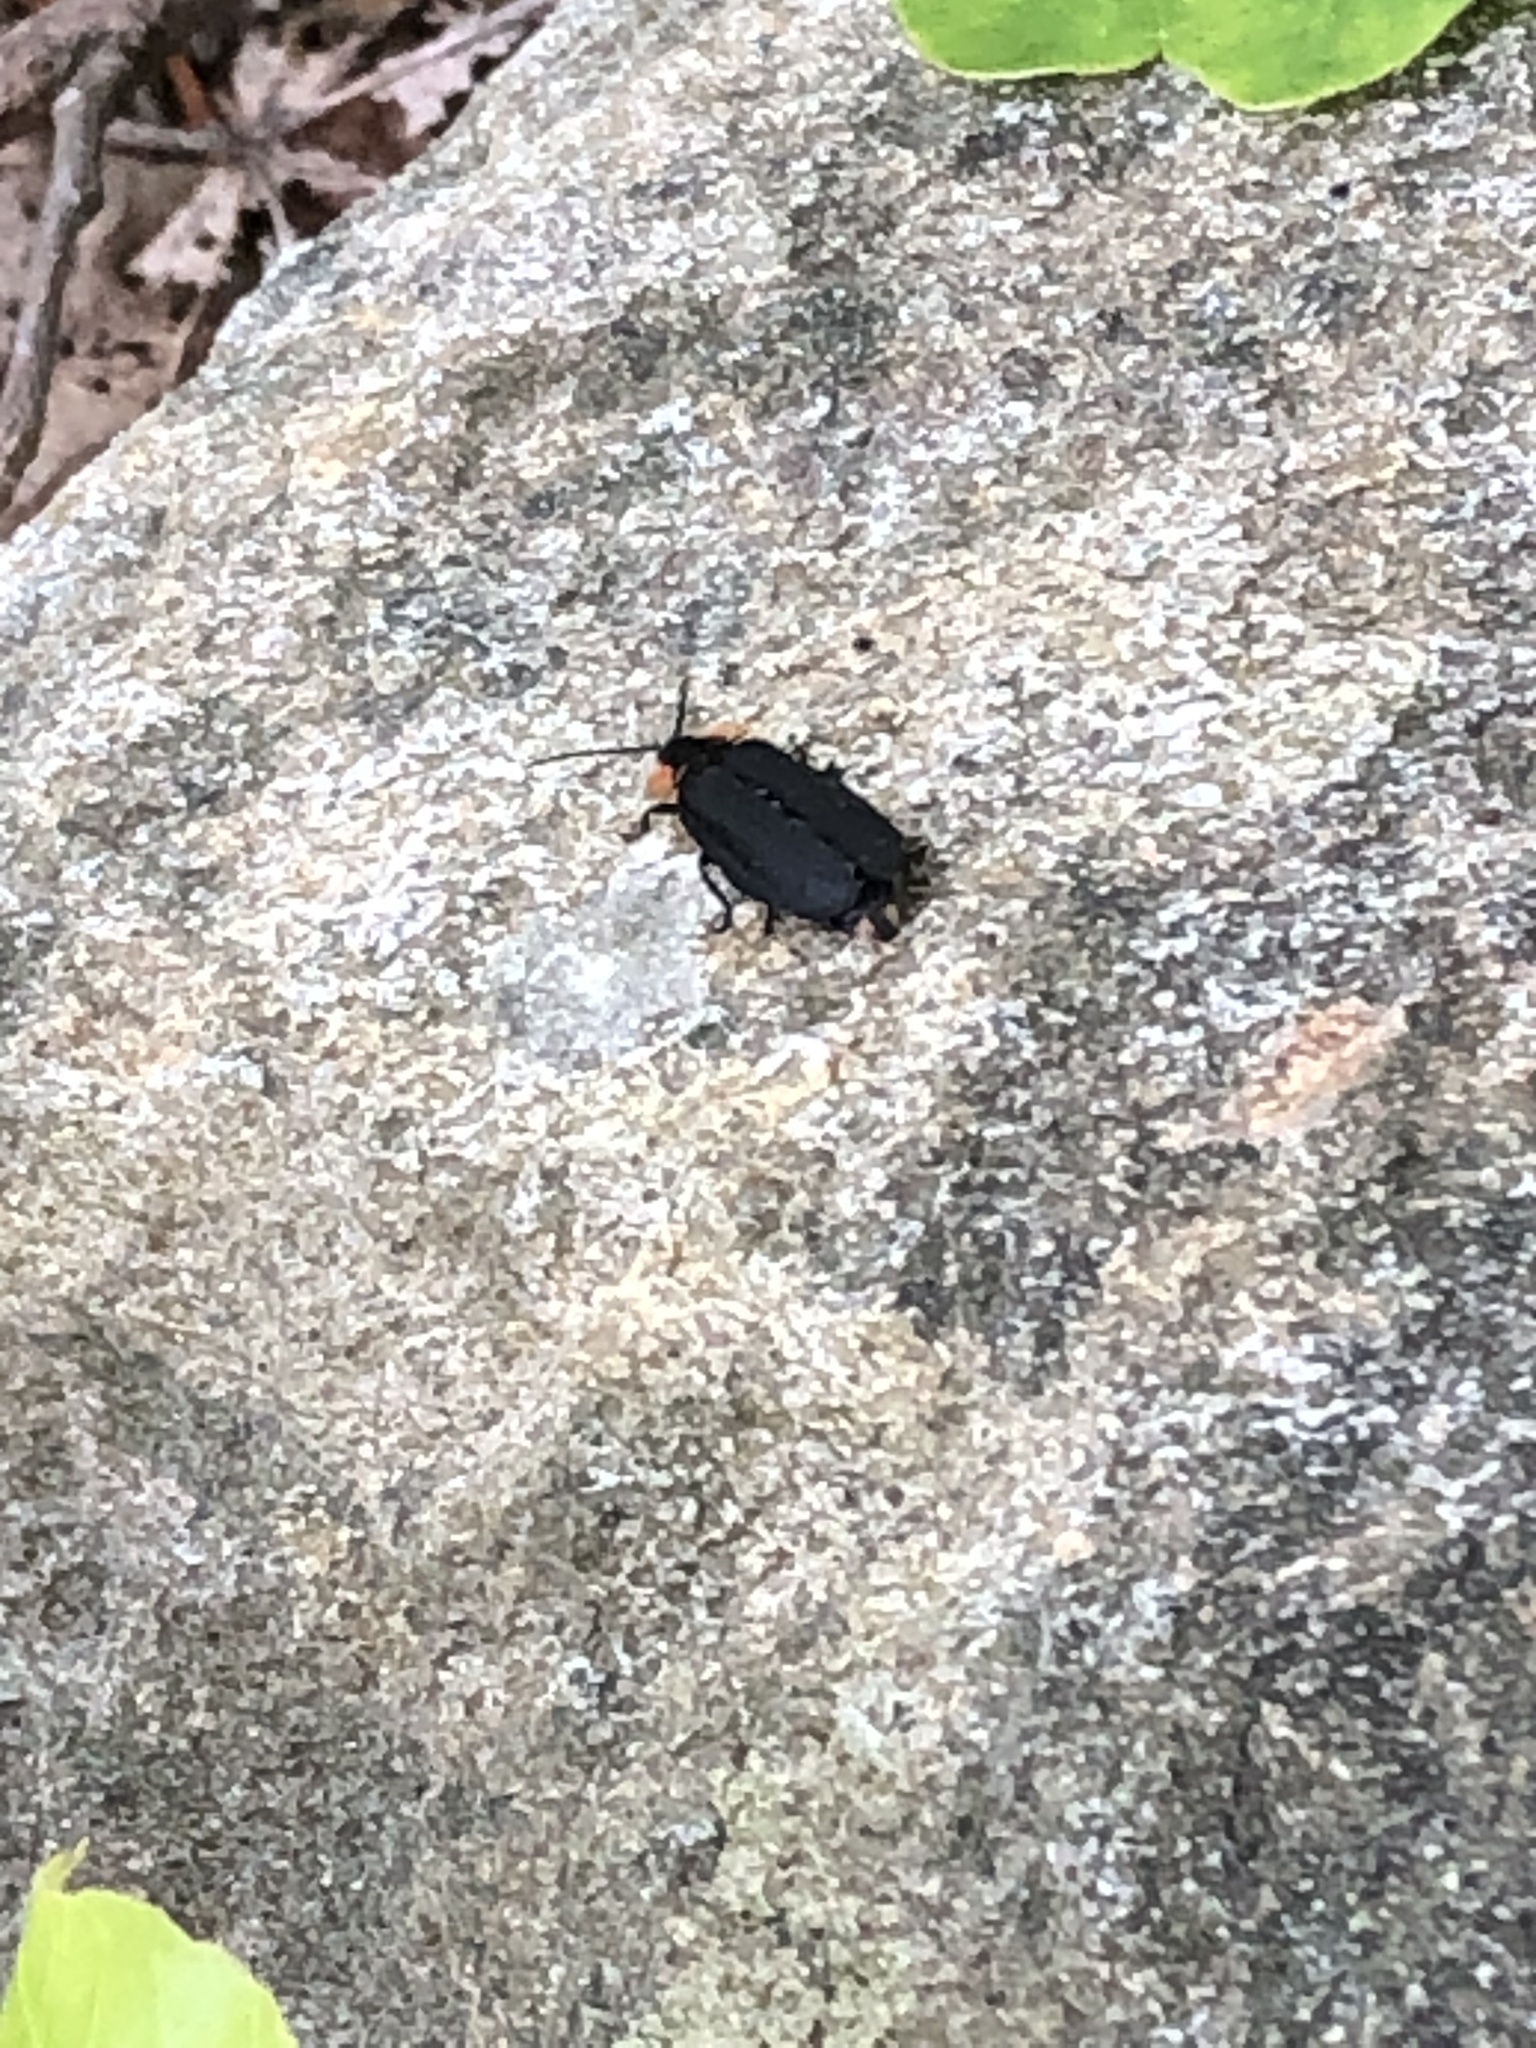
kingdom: Animalia
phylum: Arthropoda
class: Insecta
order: Coleoptera
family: Lampyridae
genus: Lucidota
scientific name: Lucidota atra
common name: Black firefly
